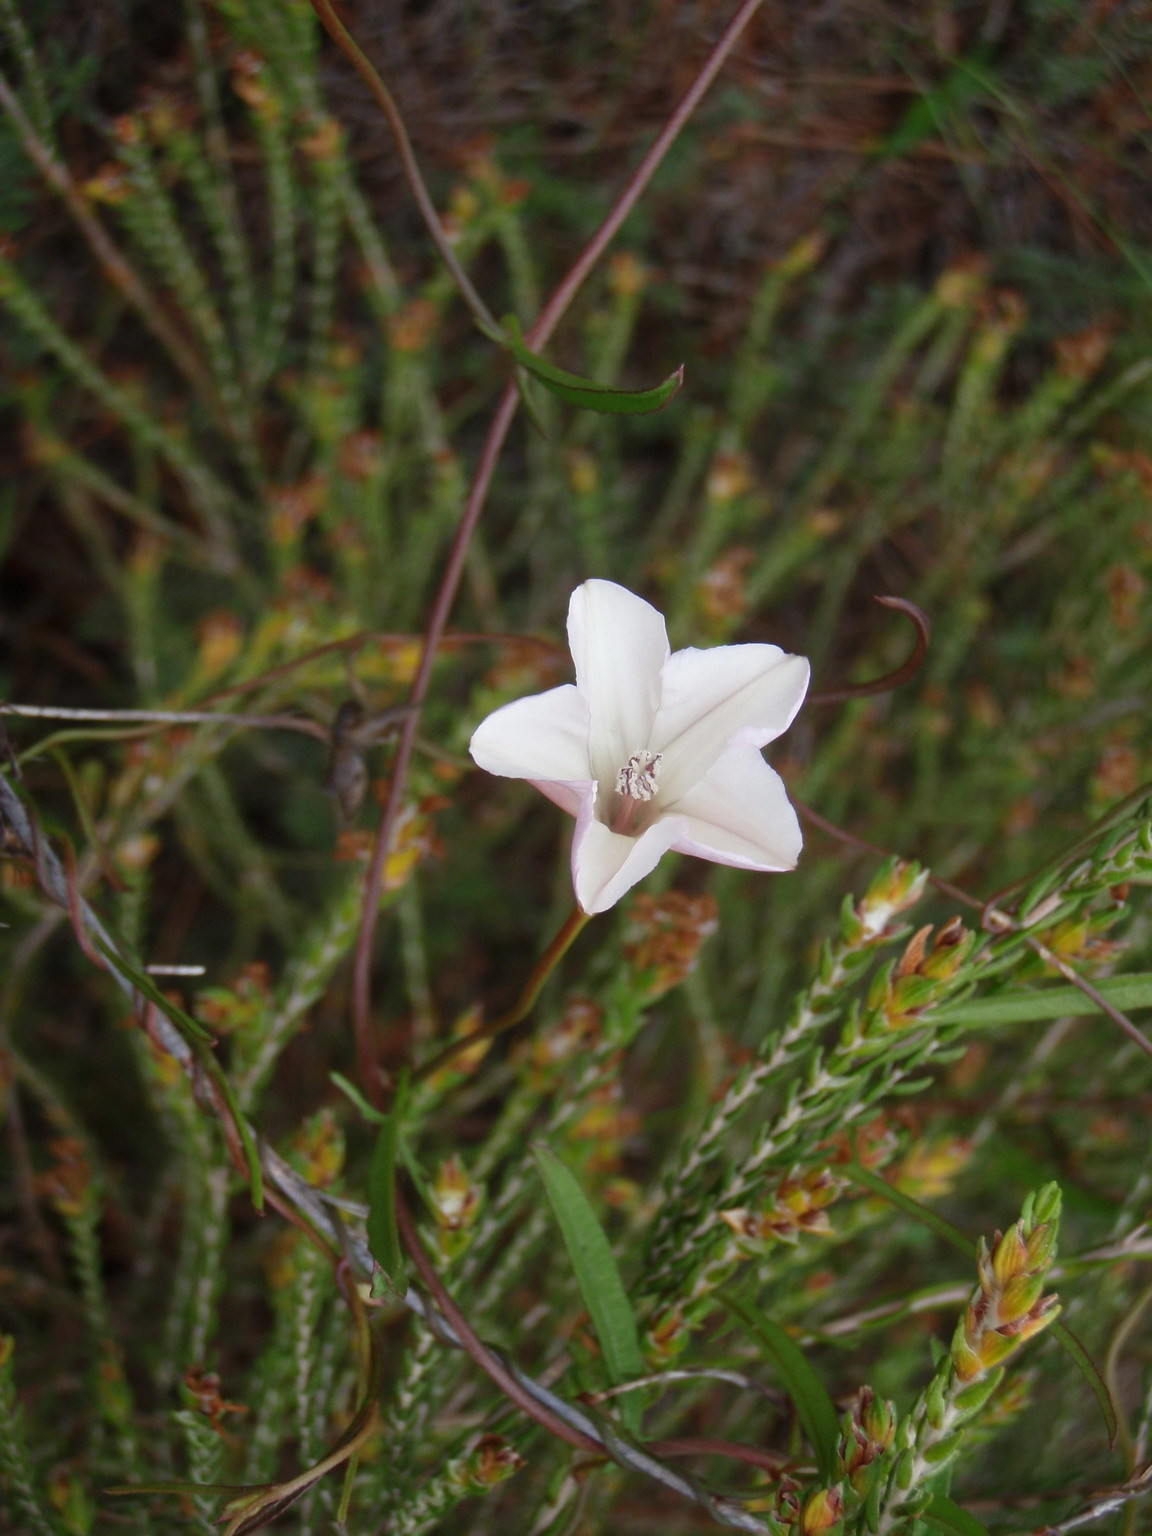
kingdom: Plantae
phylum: Tracheophyta
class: Magnoliopsida
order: Solanales
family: Convolvulaceae
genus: Convolvulus
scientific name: Convolvulus sagittatus
